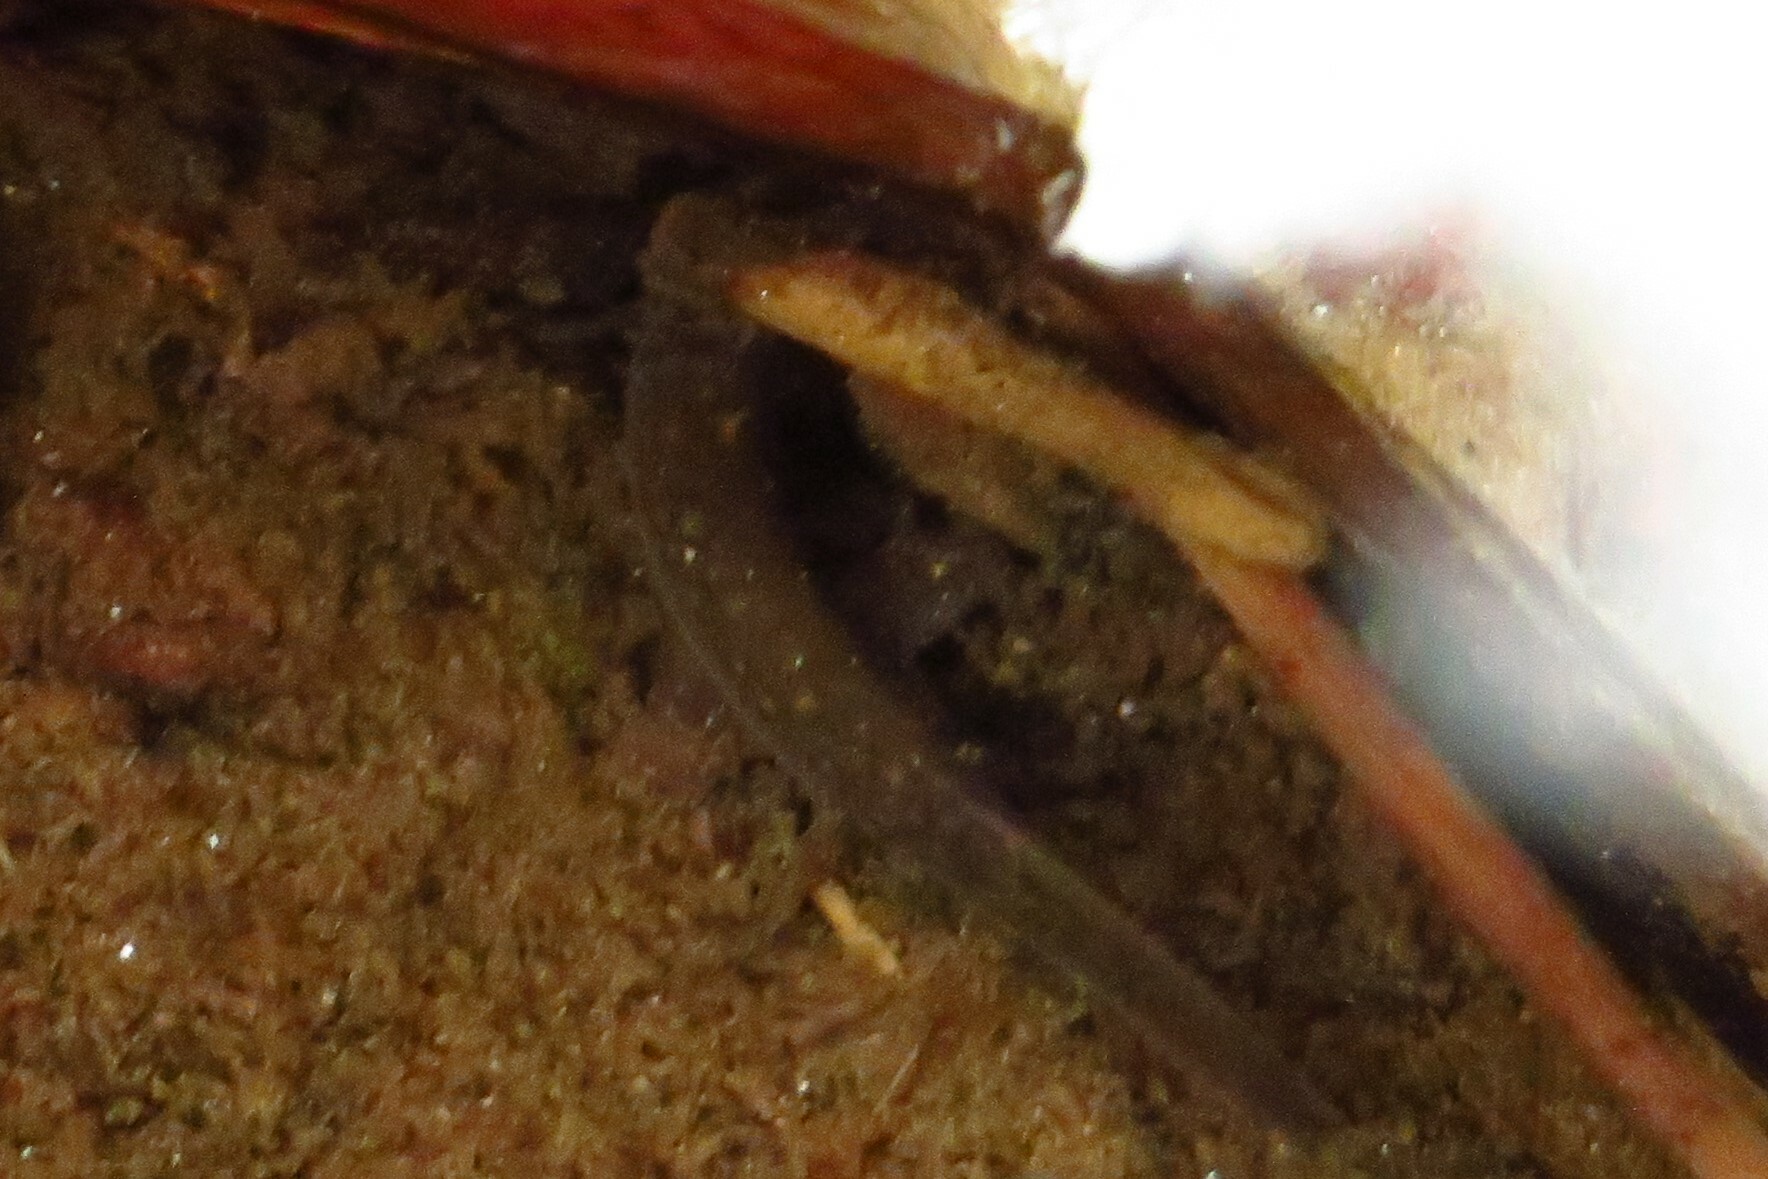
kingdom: Animalia
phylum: Chordata
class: Amphibia
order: Caudata
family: Plethodontidae
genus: Eurycea
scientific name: Eurycea bislineata
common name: Northern two-lined salamander
